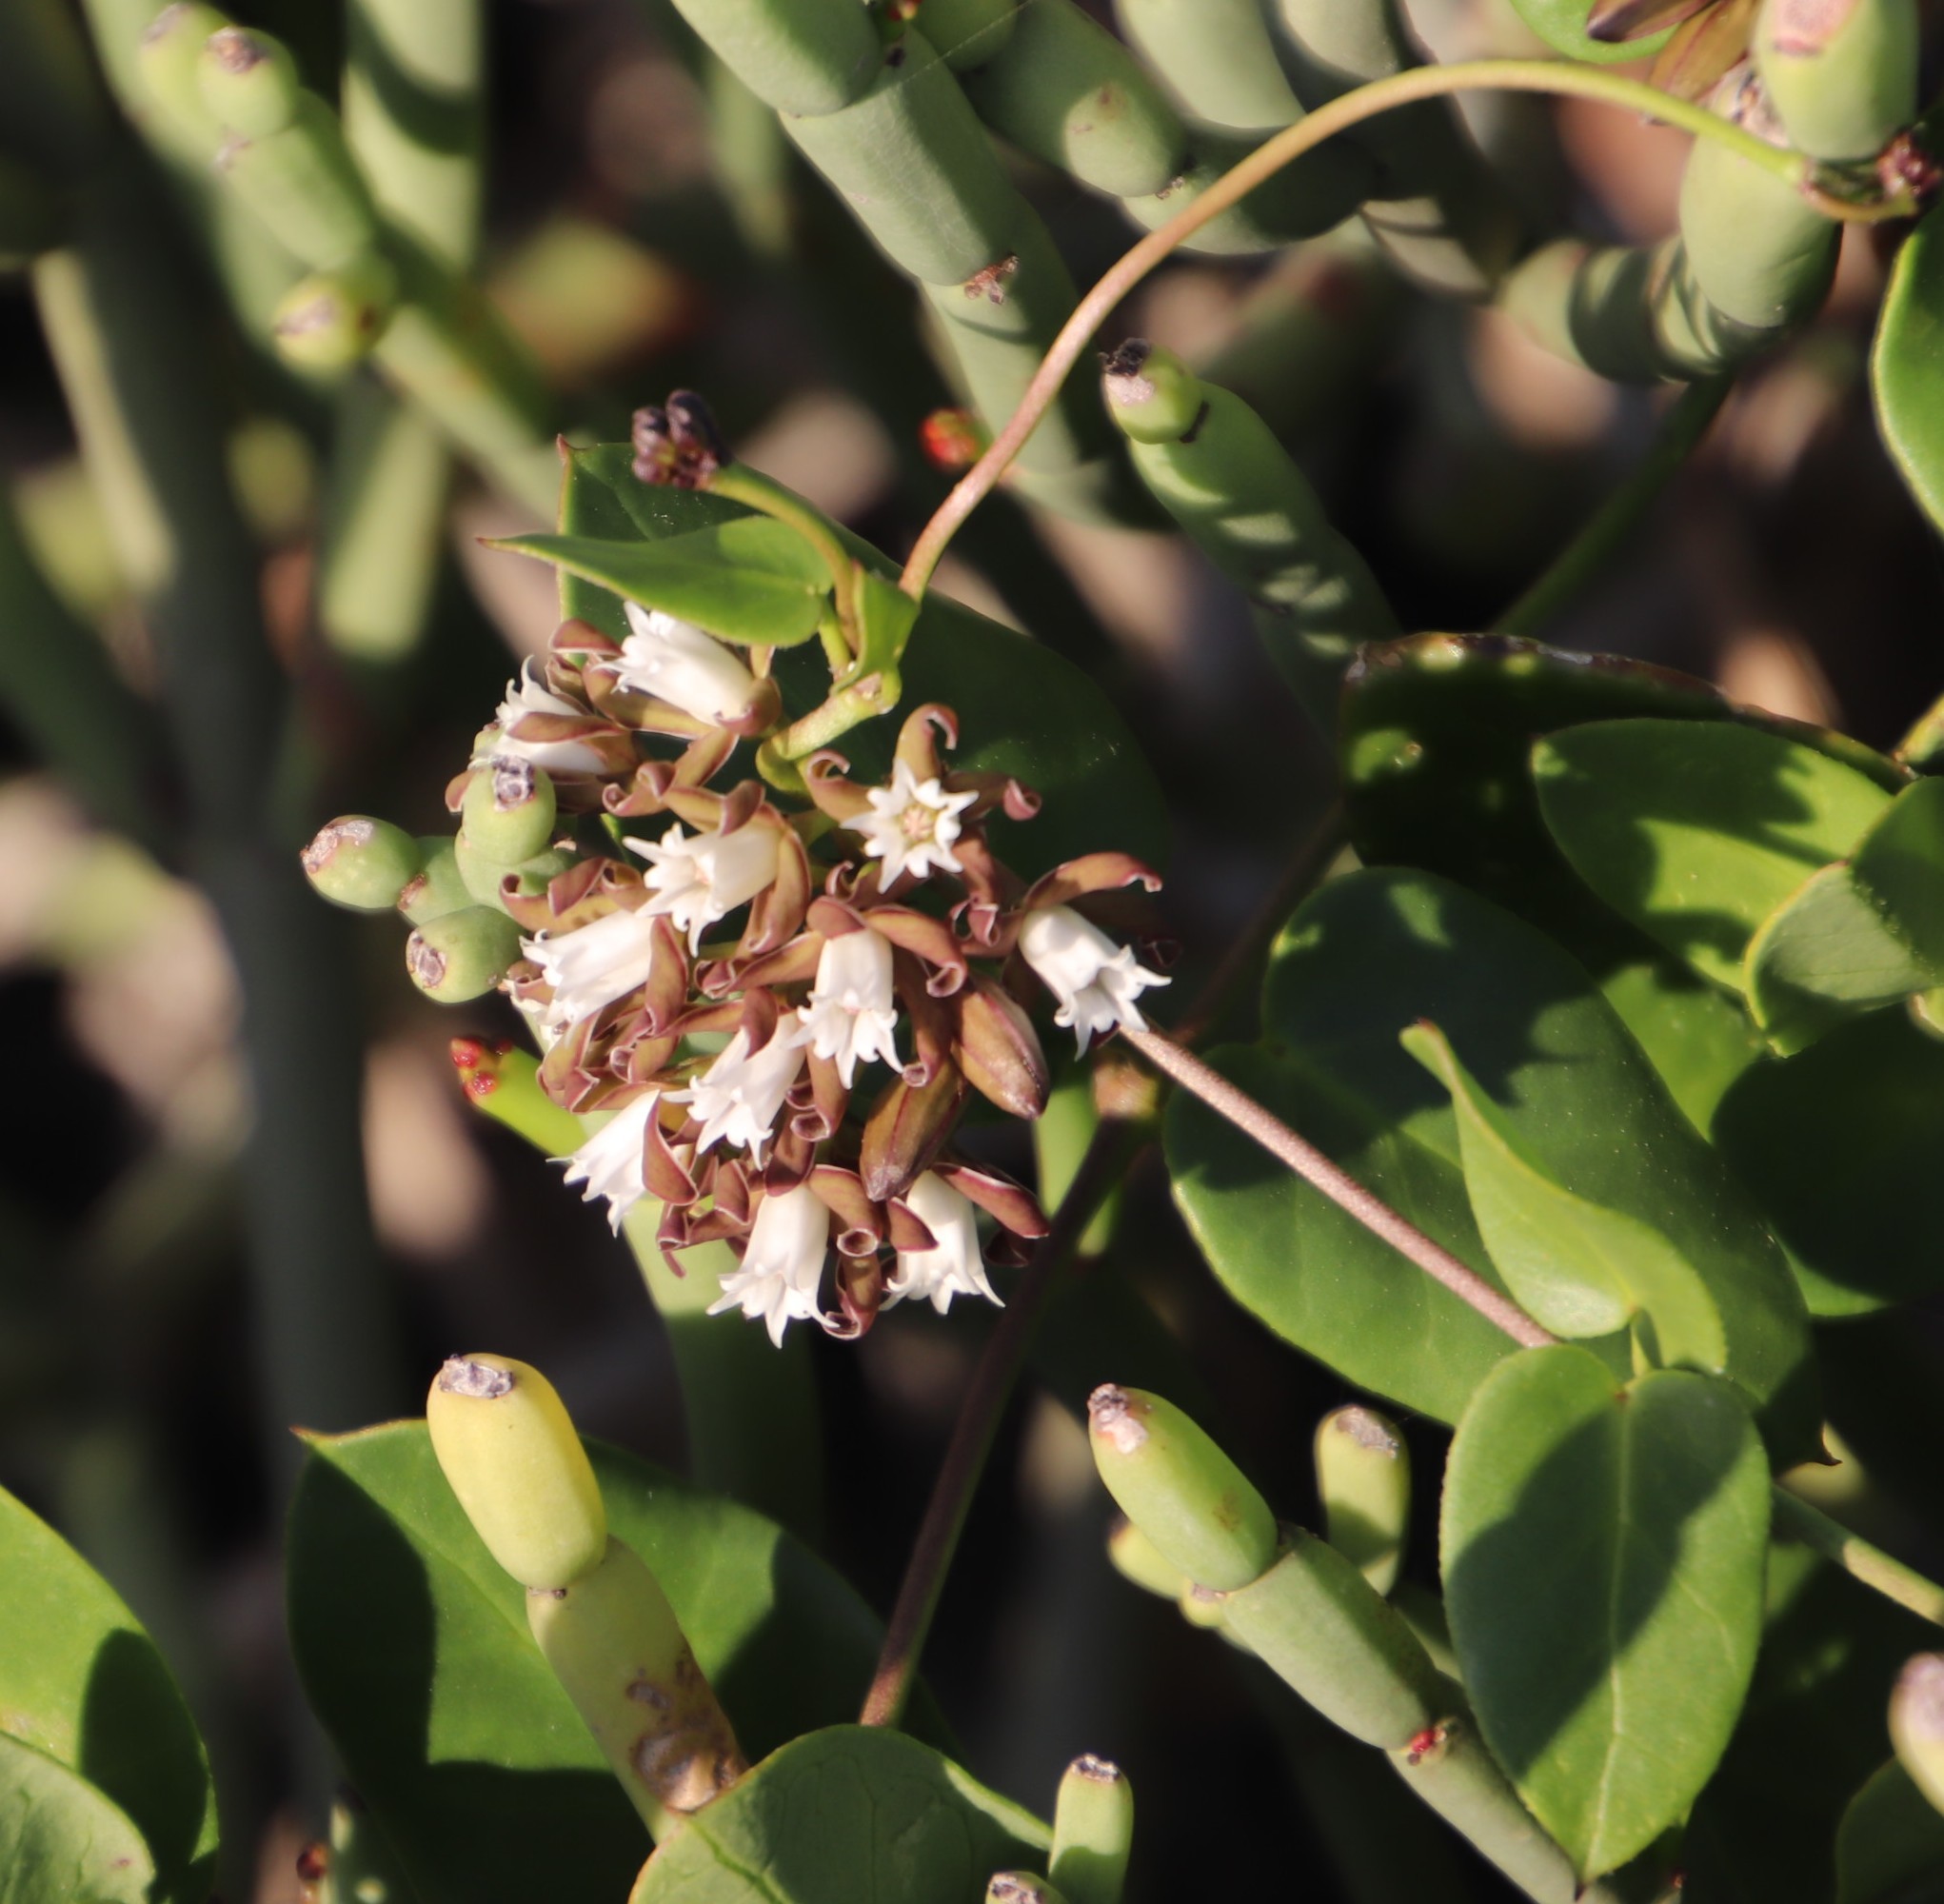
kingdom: Plantae
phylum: Tracheophyta
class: Magnoliopsida
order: Gentianales
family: Apocynaceae
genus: Cynanchum
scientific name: Cynanchum africanum
